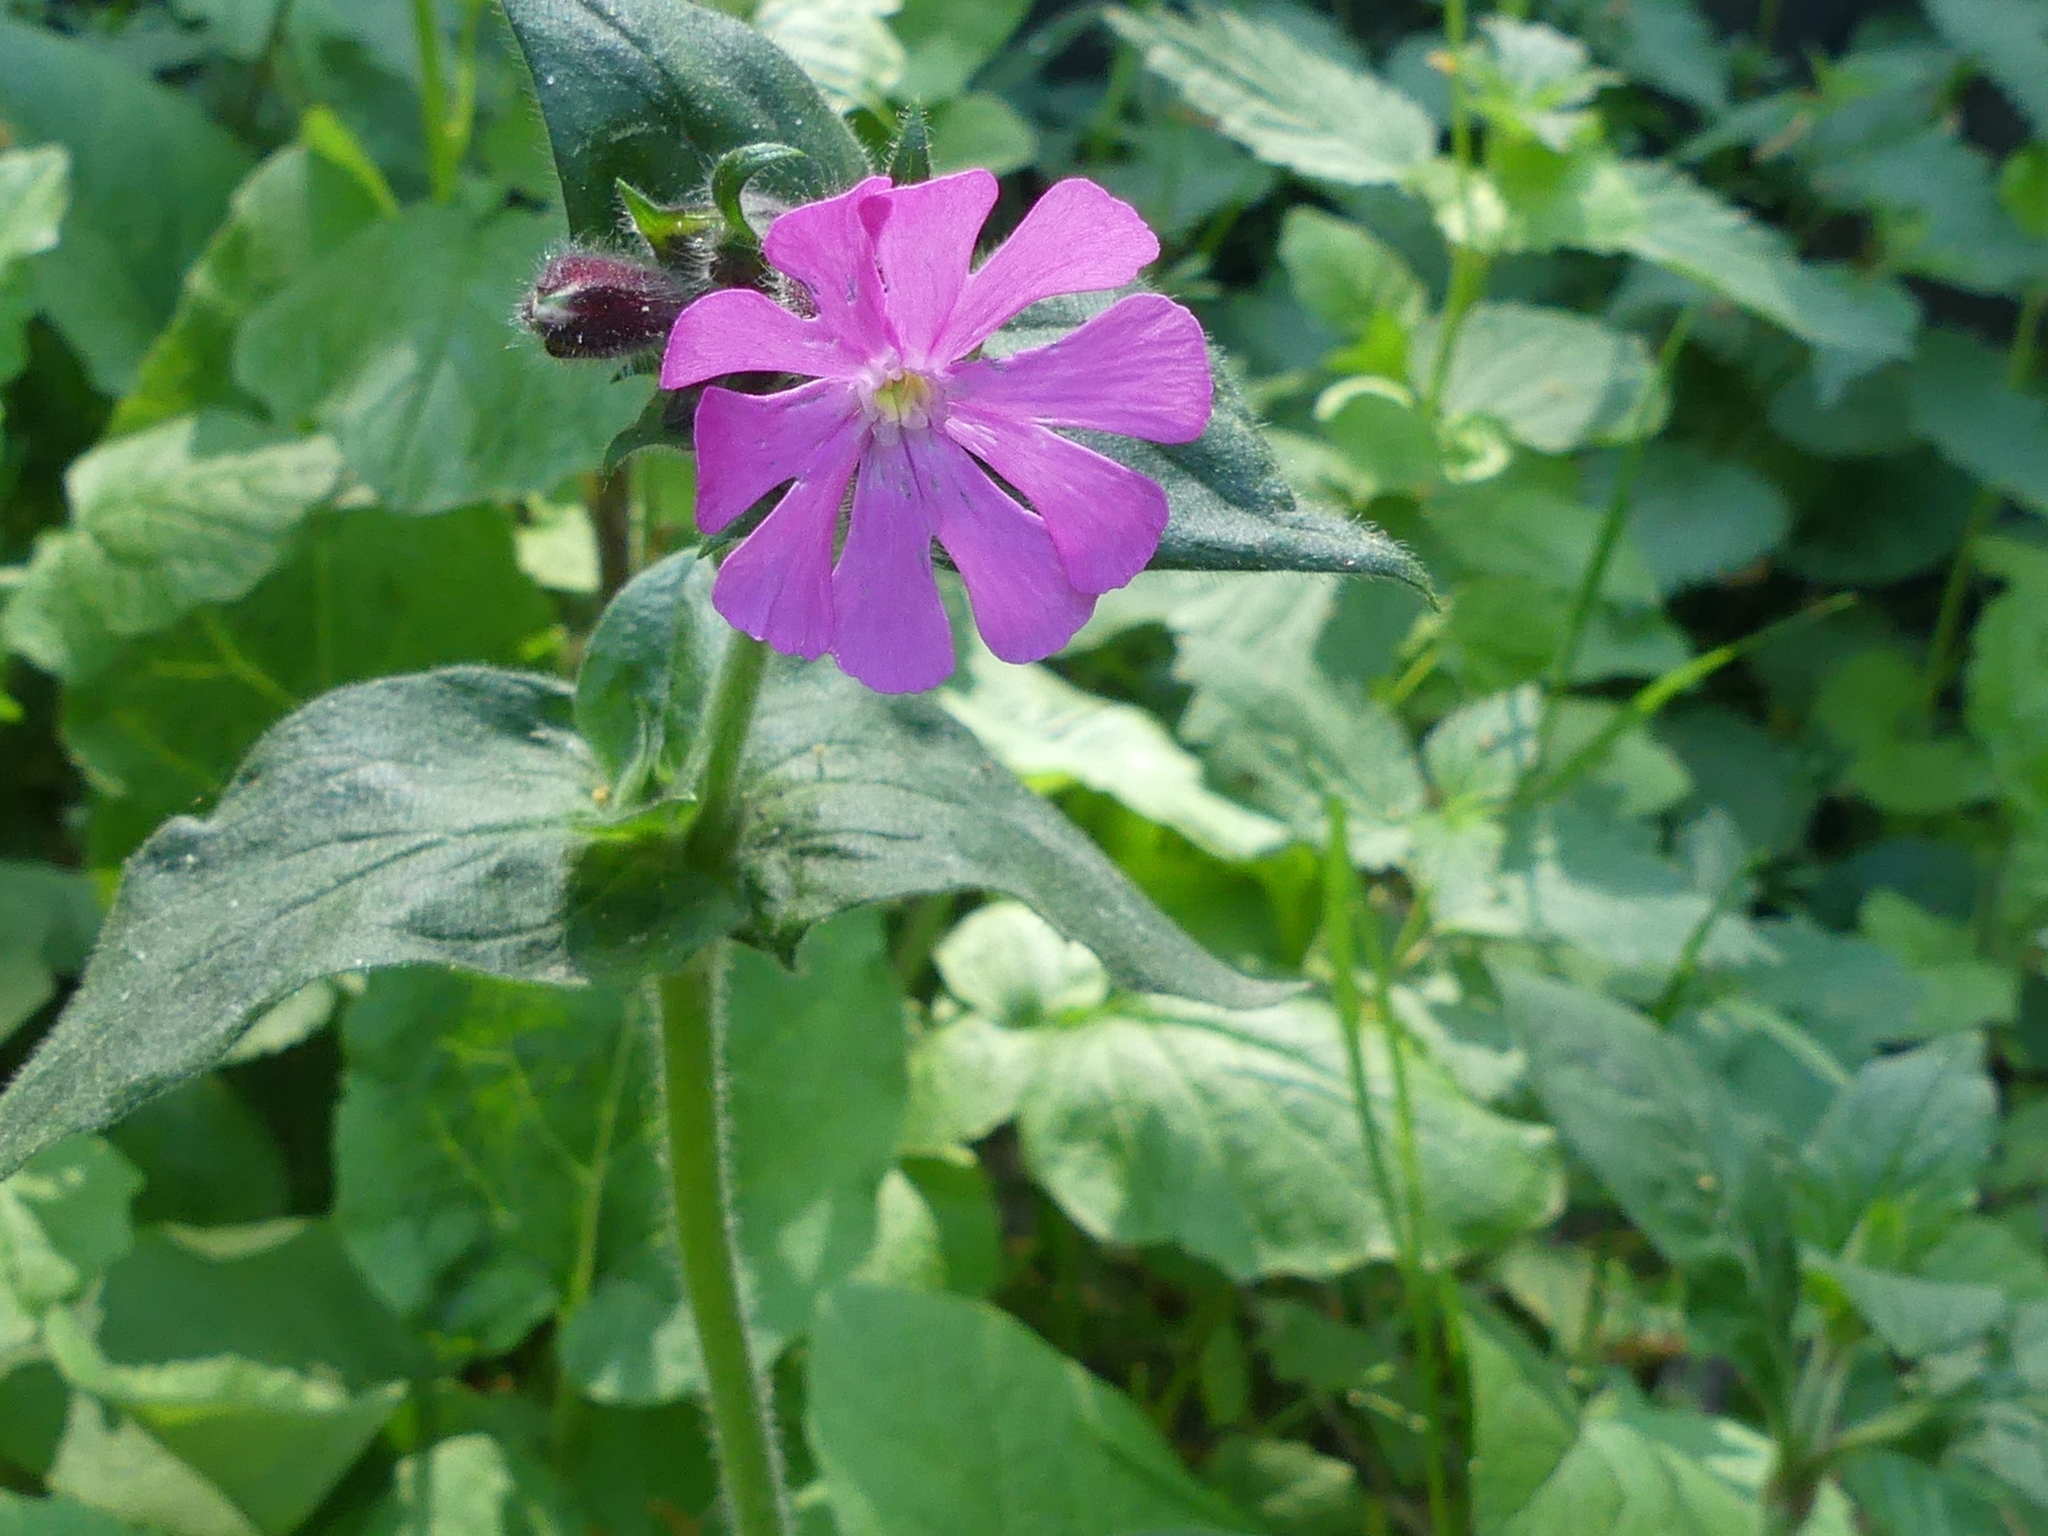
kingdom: Plantae
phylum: Tracheophyta
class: Magnoliopsida
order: Caryophyllales
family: Caryophyllaceae
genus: Silene
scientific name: Silene dioica
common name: Red campion
